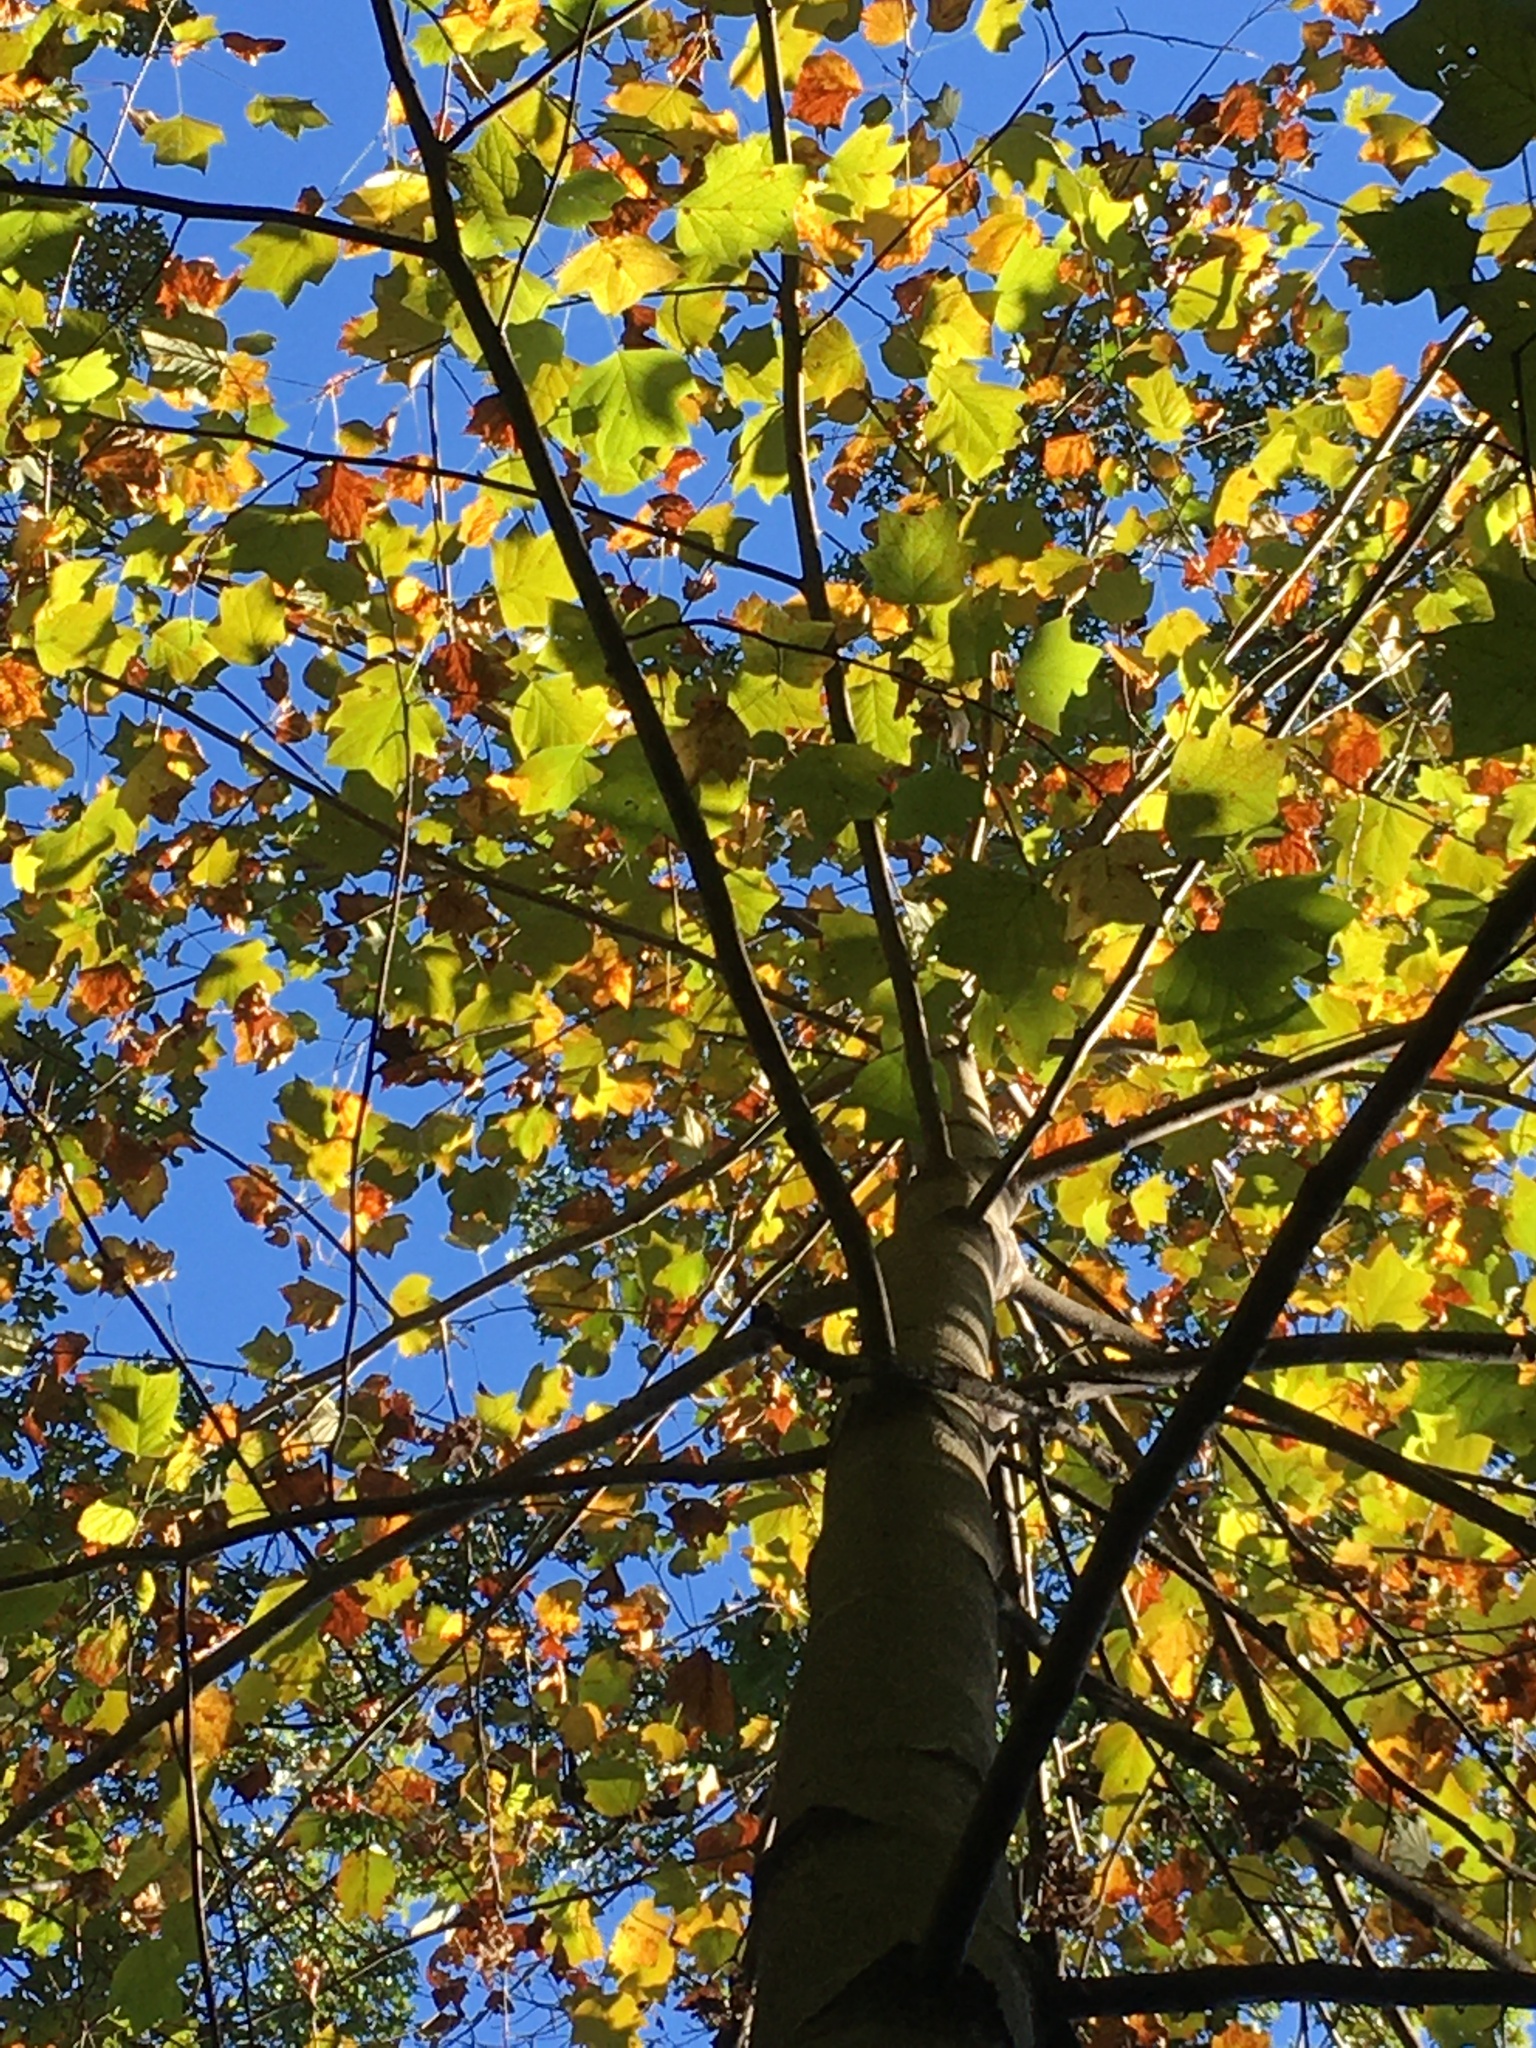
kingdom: Plantae
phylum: Tracheophyta
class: Magnoliopsida
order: Magnoliales
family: Magnoliaceae
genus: Liriodendron
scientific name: Liriodendron tulipifera
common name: Tulip tree
